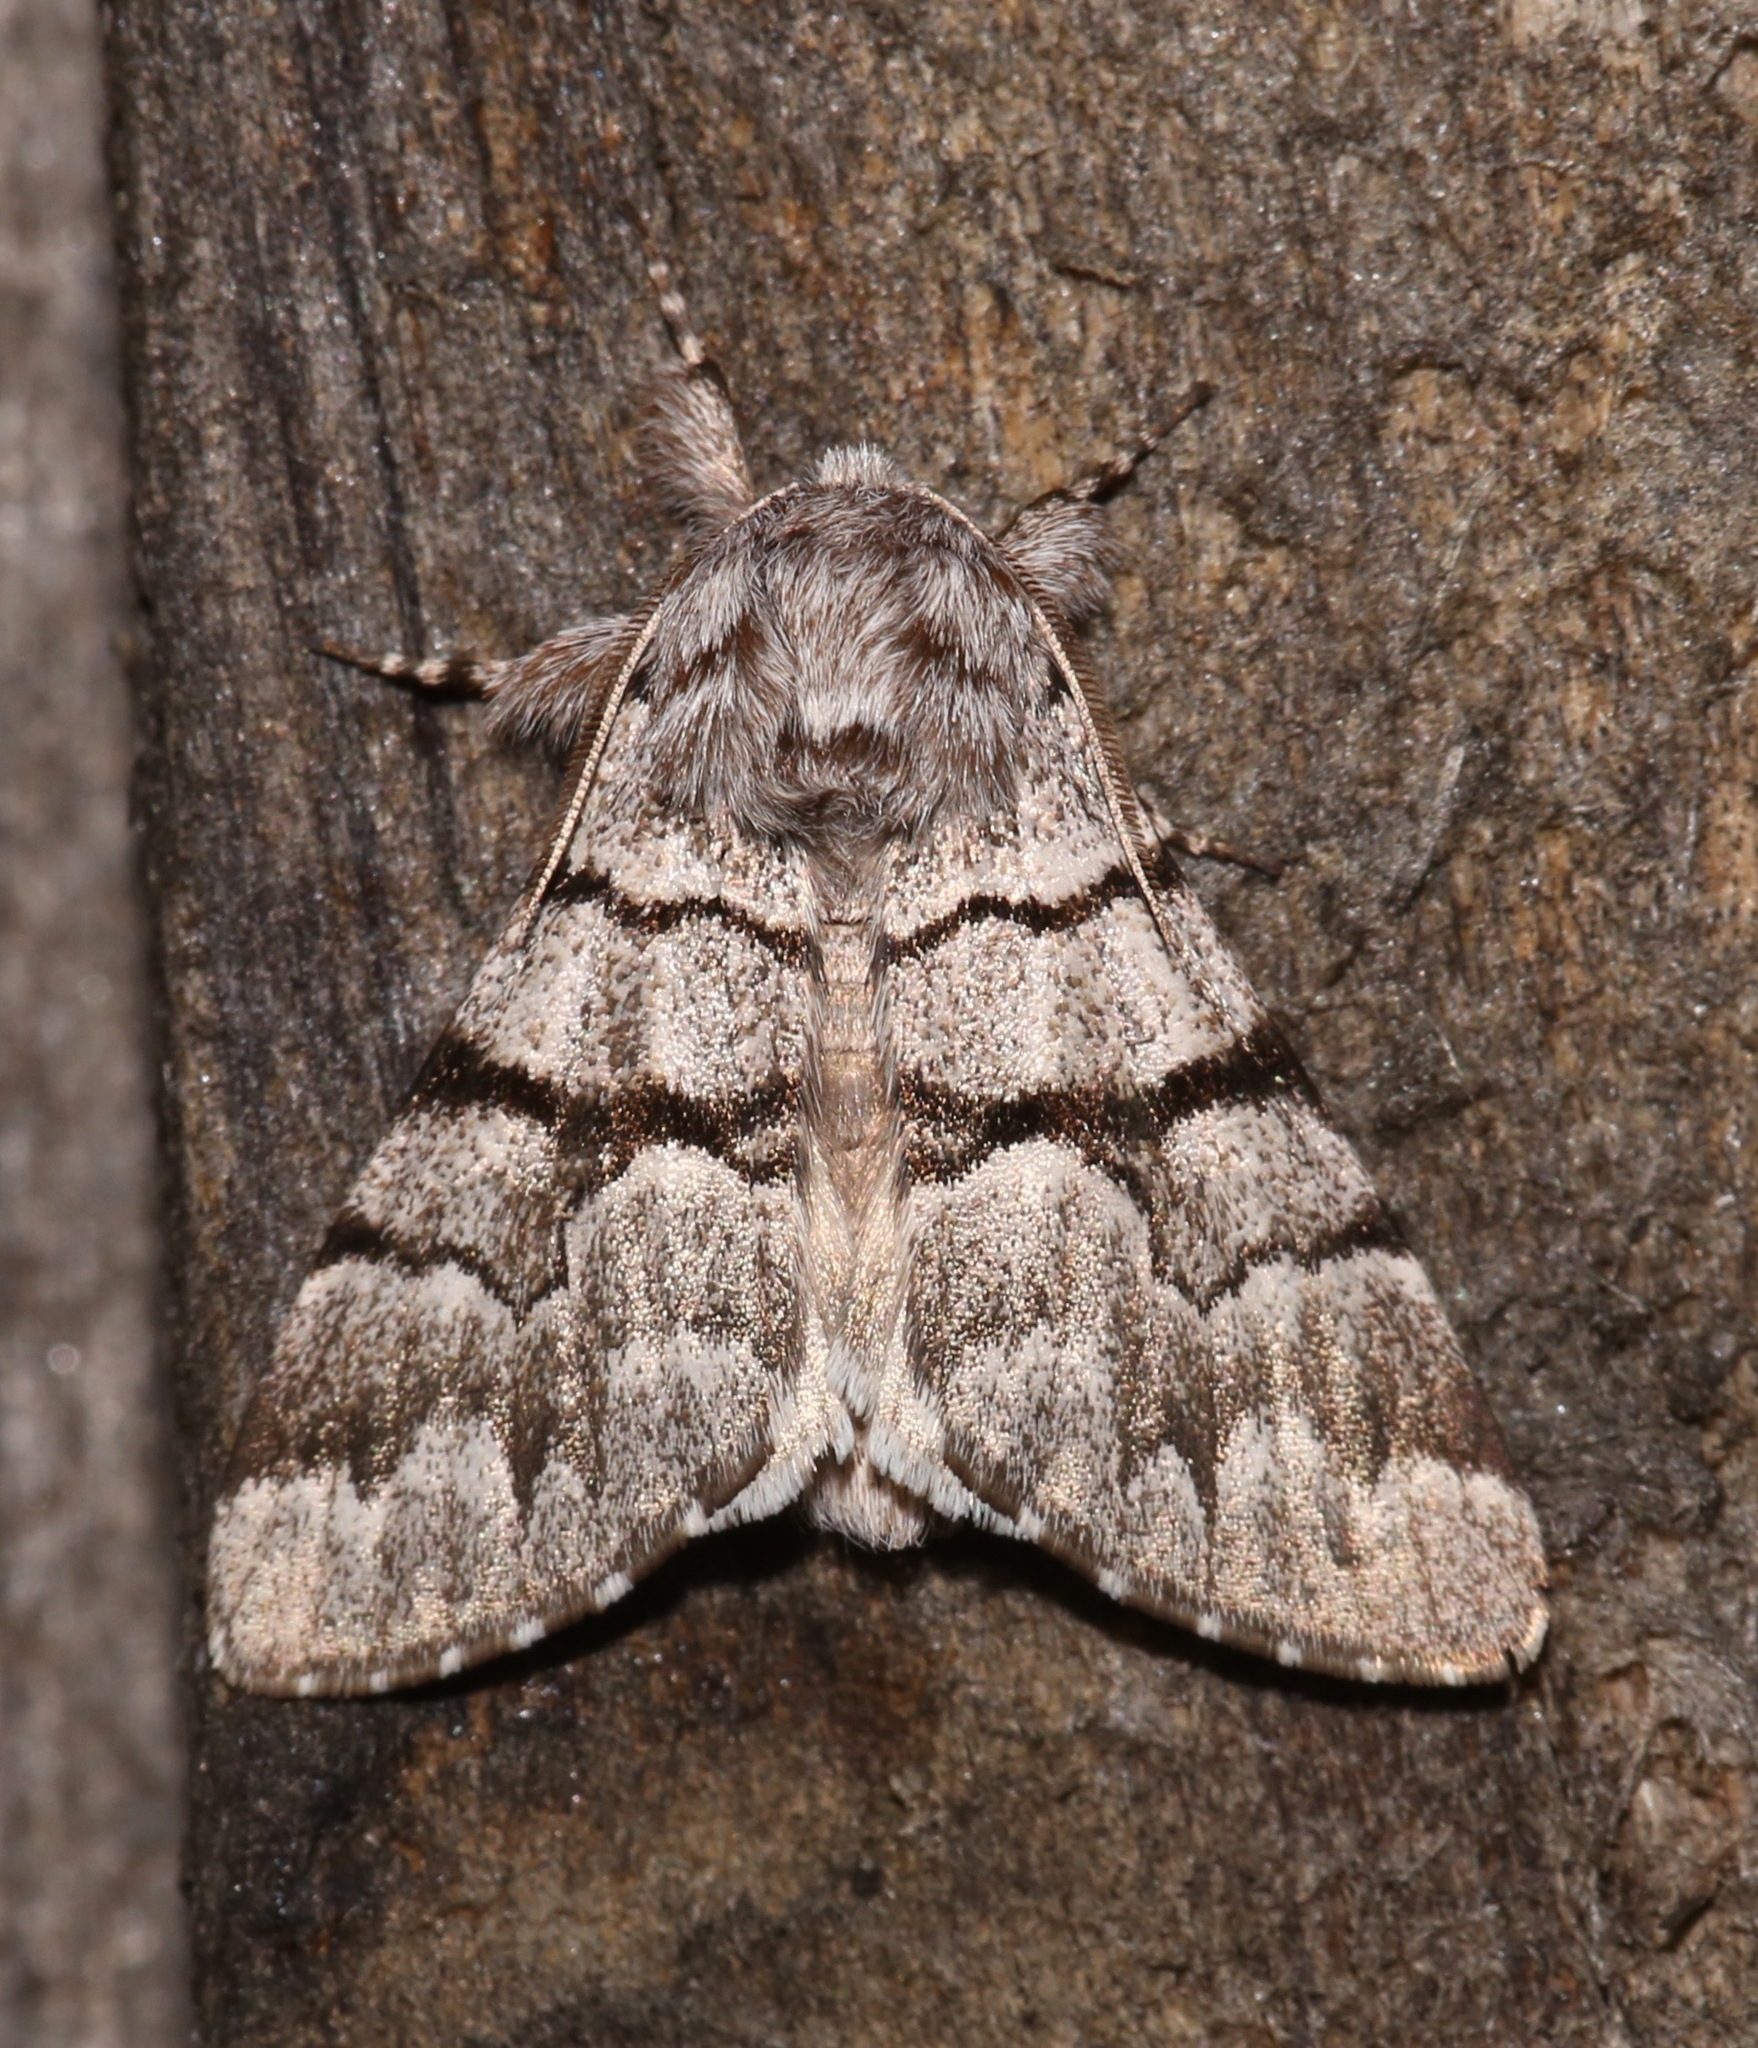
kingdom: Animalia
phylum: Arthropoda
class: Insecta
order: Lepidoptera
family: Noctuidae
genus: Panthea
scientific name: Panthea furcilla
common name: Eastern panthea moth
